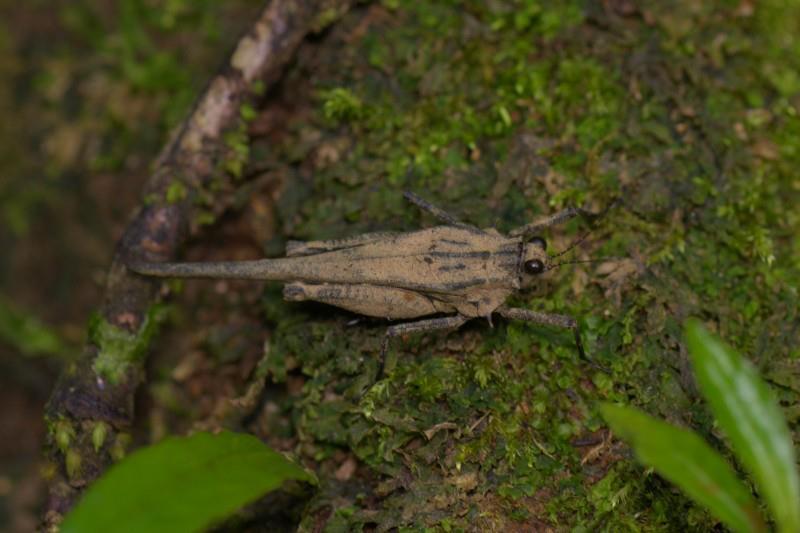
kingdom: Animalia
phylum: Arthropoda
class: Insecta
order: Orthoptera
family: Tetrigidae
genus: Scelimena
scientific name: Scelimena kempi
